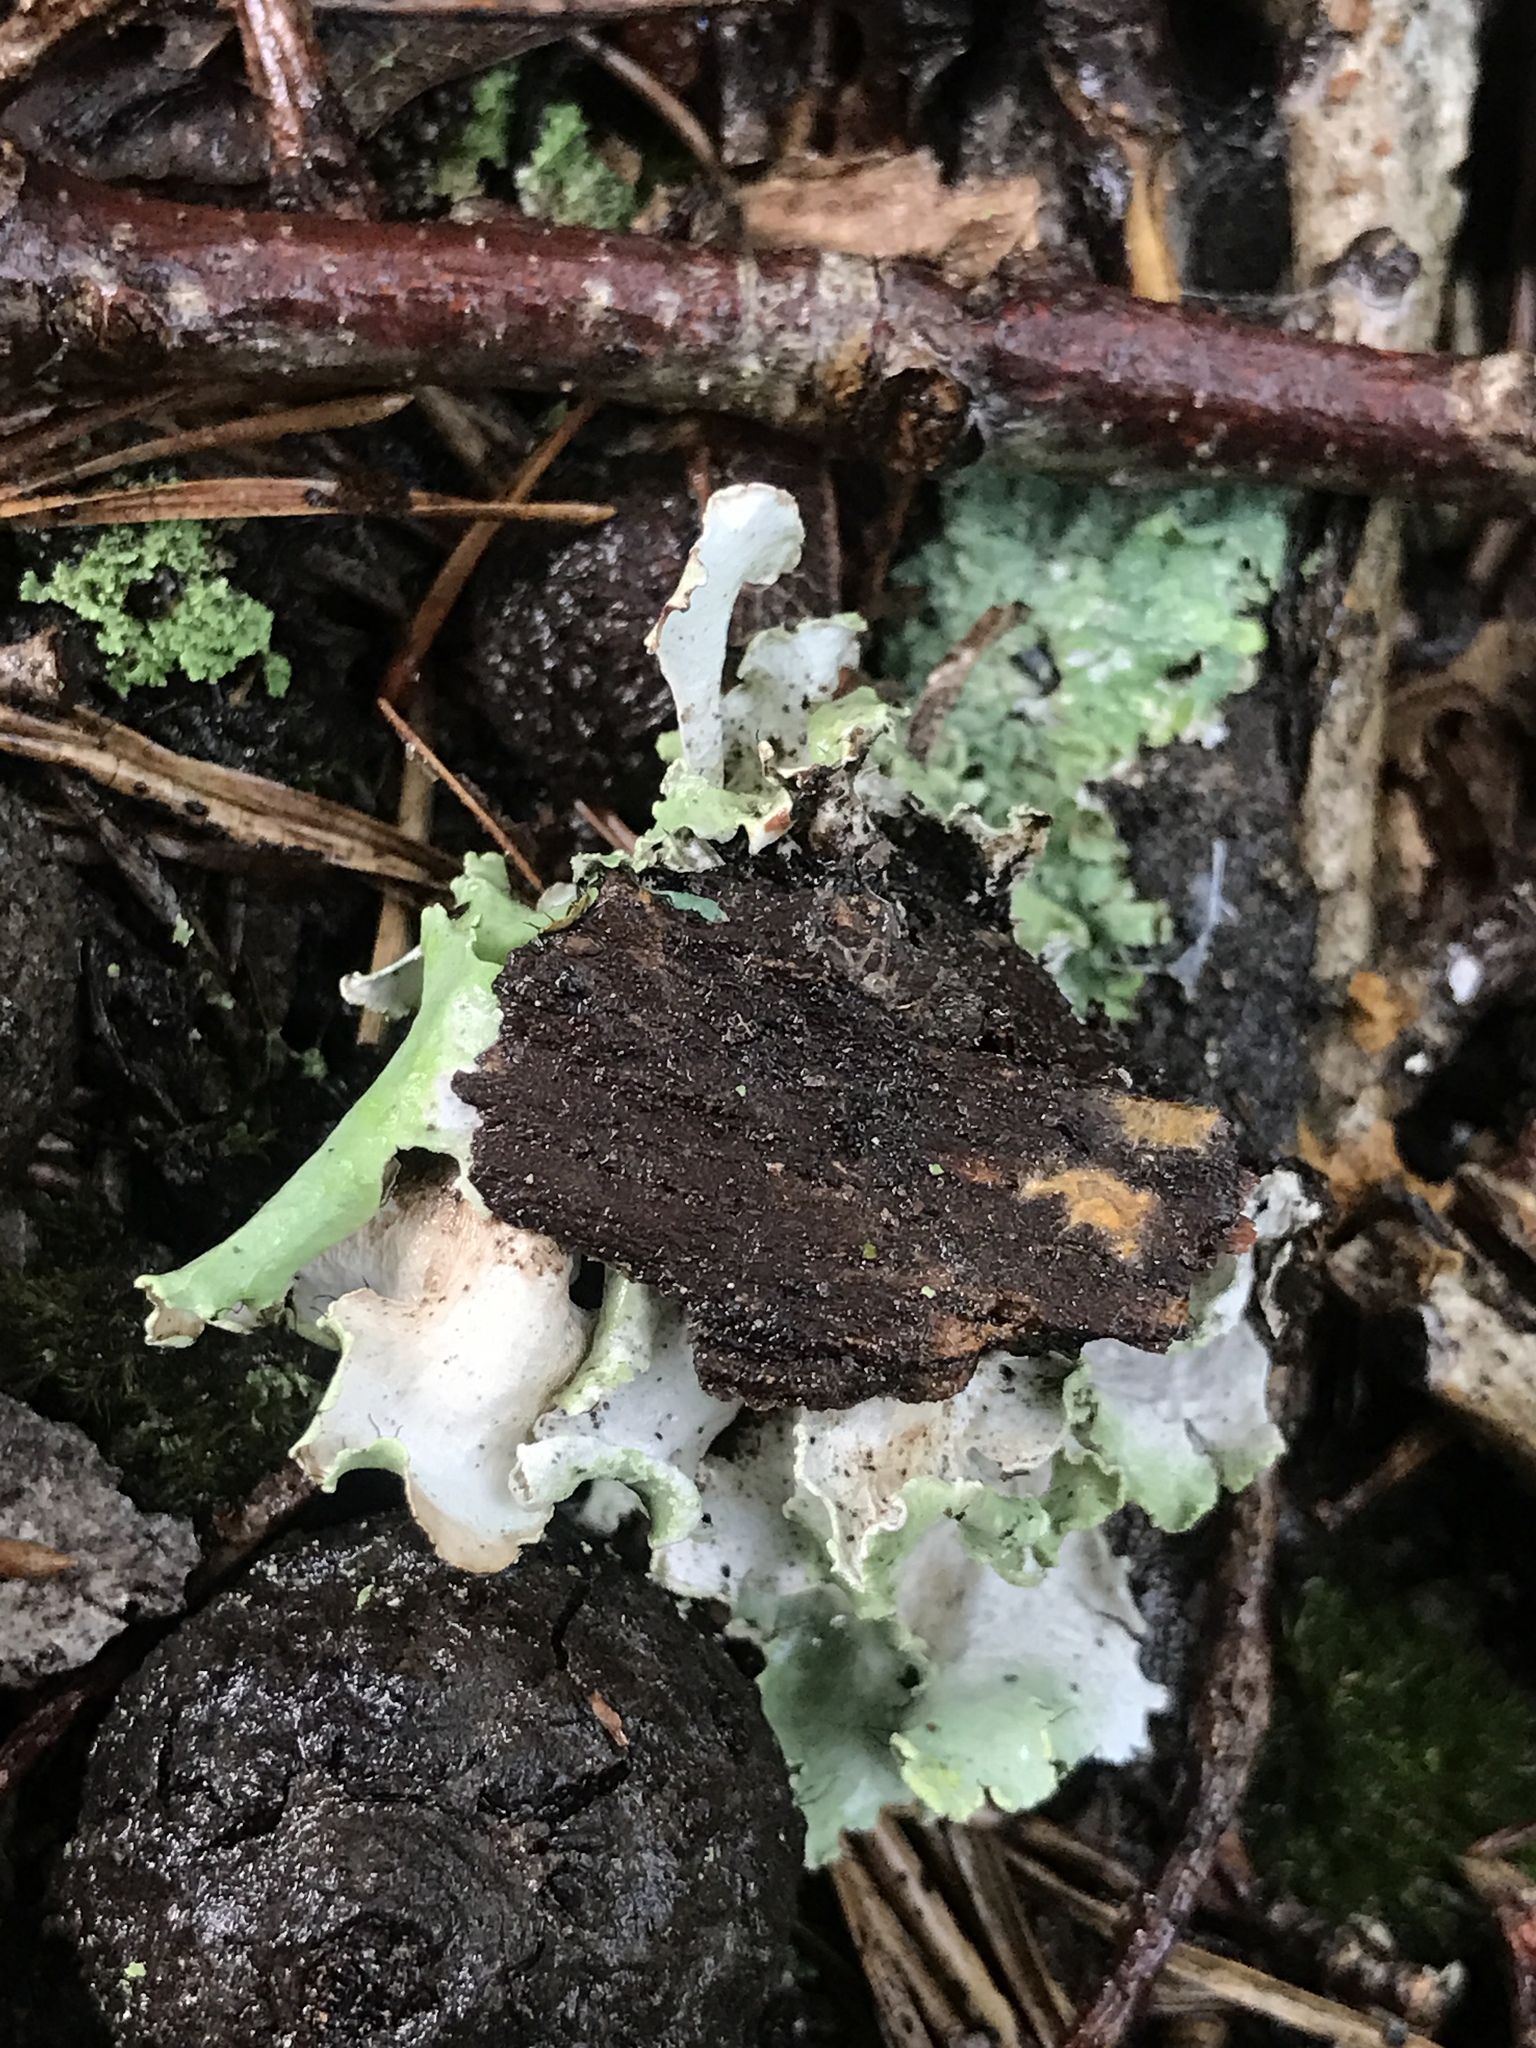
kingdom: Fungi
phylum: Ascomycota
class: Lecanoromycetes
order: Lecanorales
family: Parmeliaceae
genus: Parmotrema
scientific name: Parmotrema hypotropum
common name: Powdered ruffle lichen
